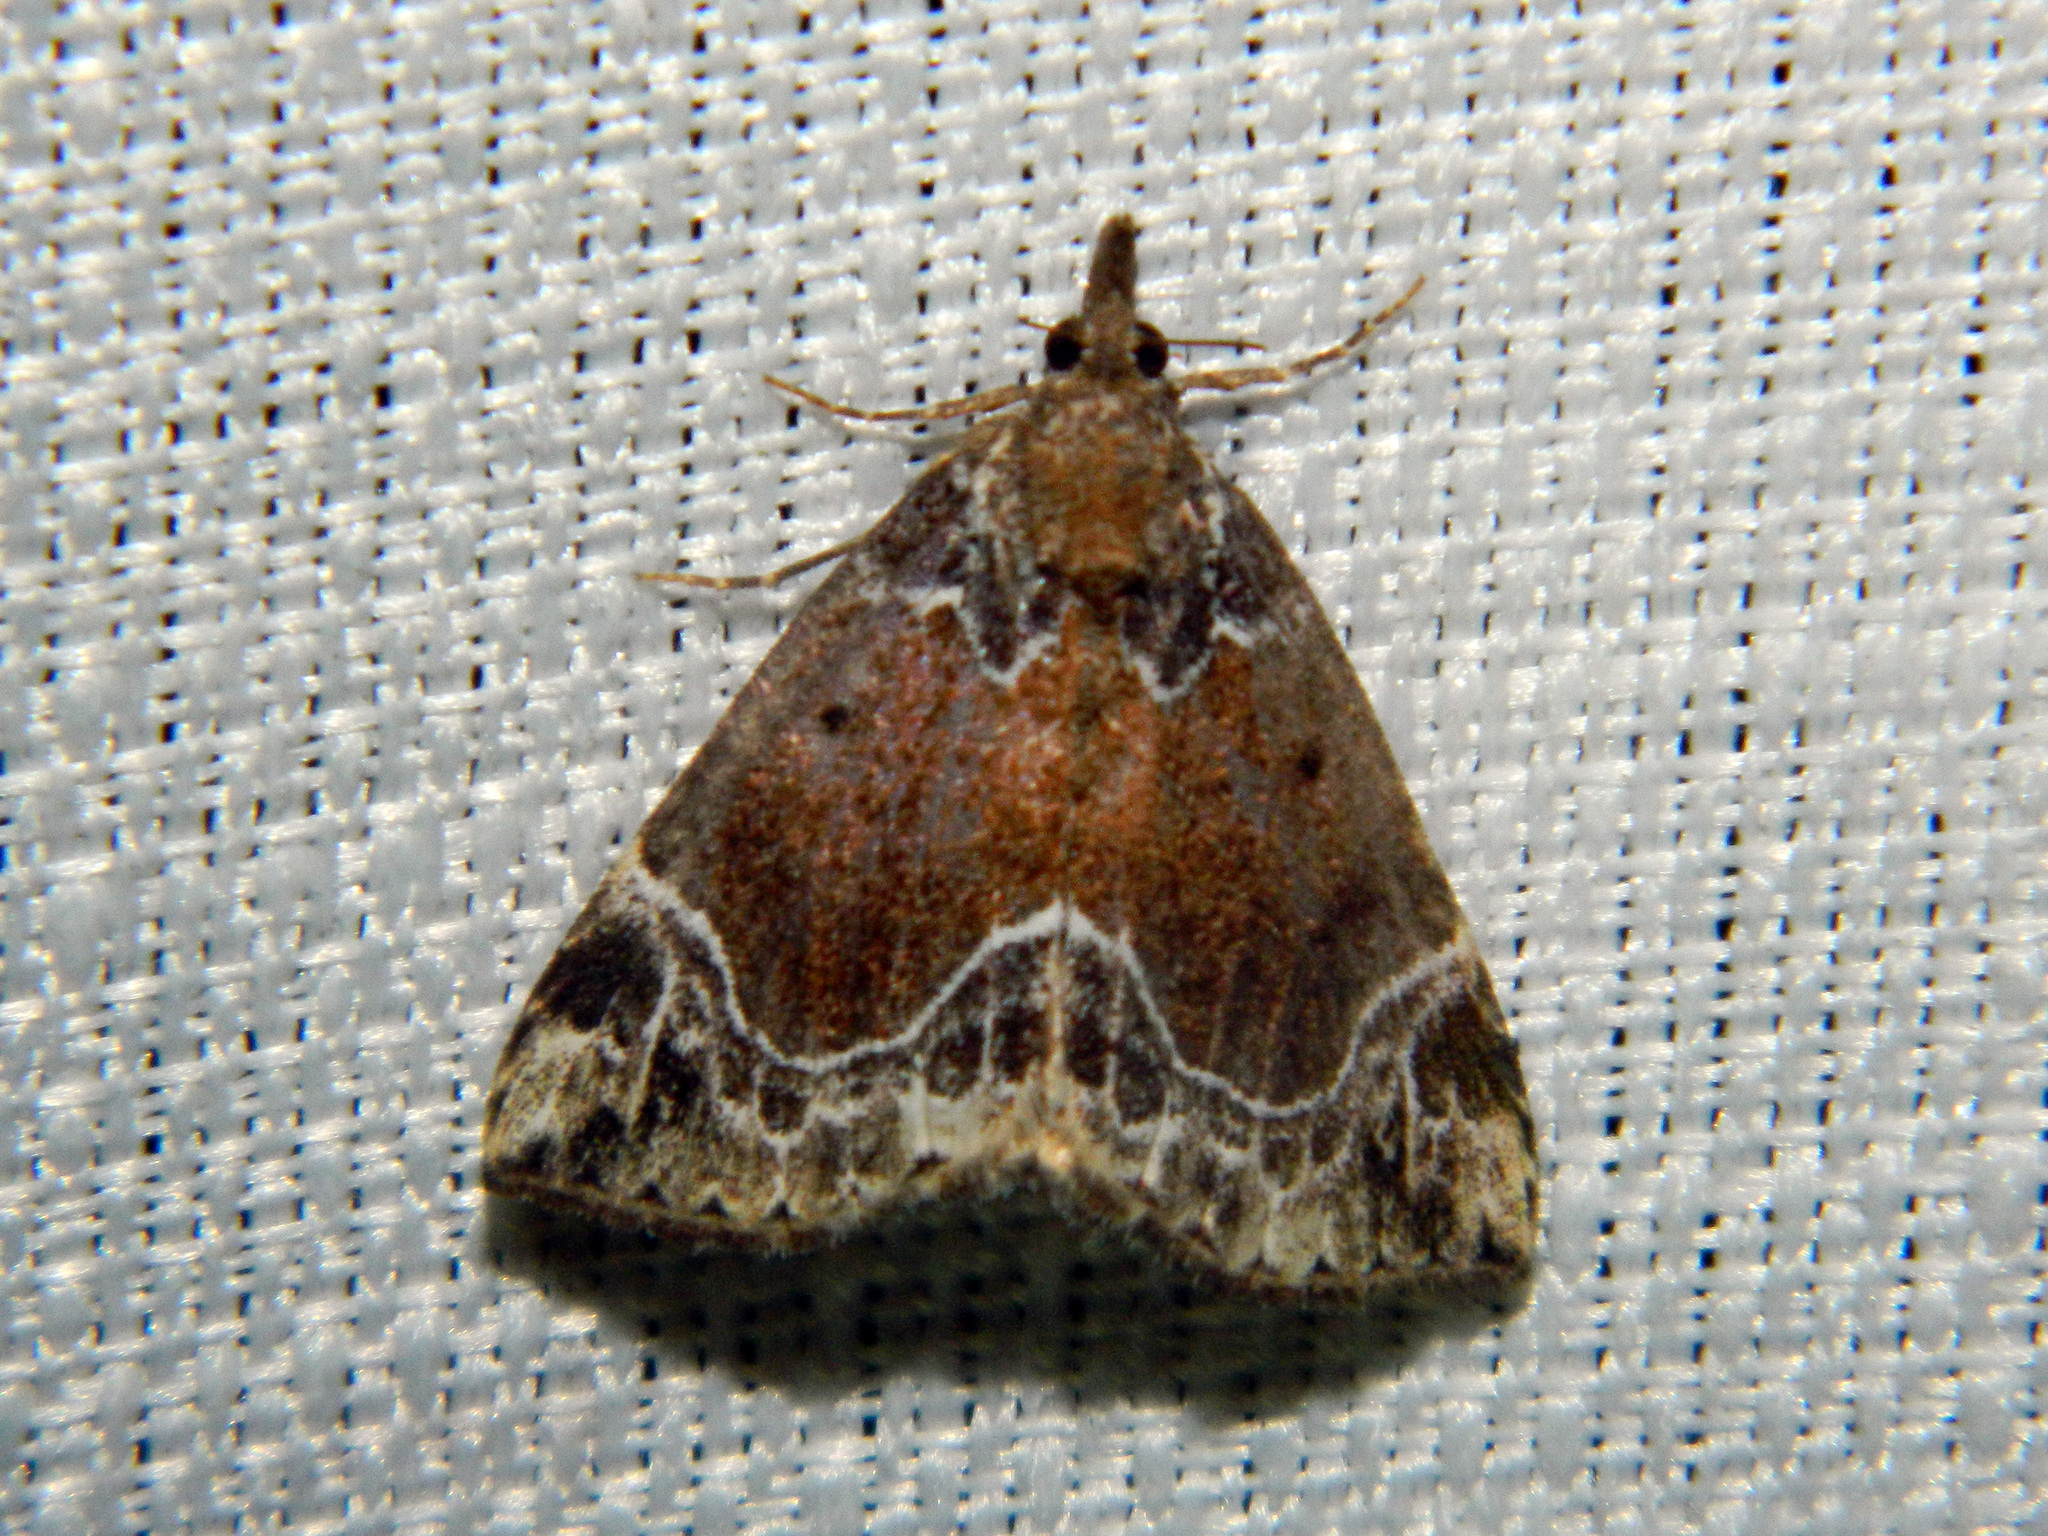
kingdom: Animalia
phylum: Arthropoda
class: Insecta
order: Lepidoptera
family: Erebidae
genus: Hypena
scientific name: Hypena abalienalis
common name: White-lined snout
